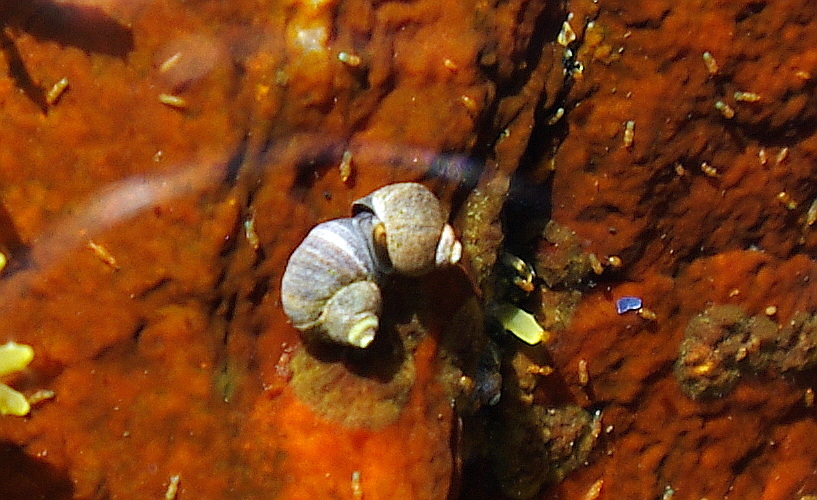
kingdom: Animalia
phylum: Mollusca
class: Gastropoda
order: Littorinimorpha
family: Littorinidae
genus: Littorina
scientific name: Littorina saxatilis
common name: Black-lined periwinkle
